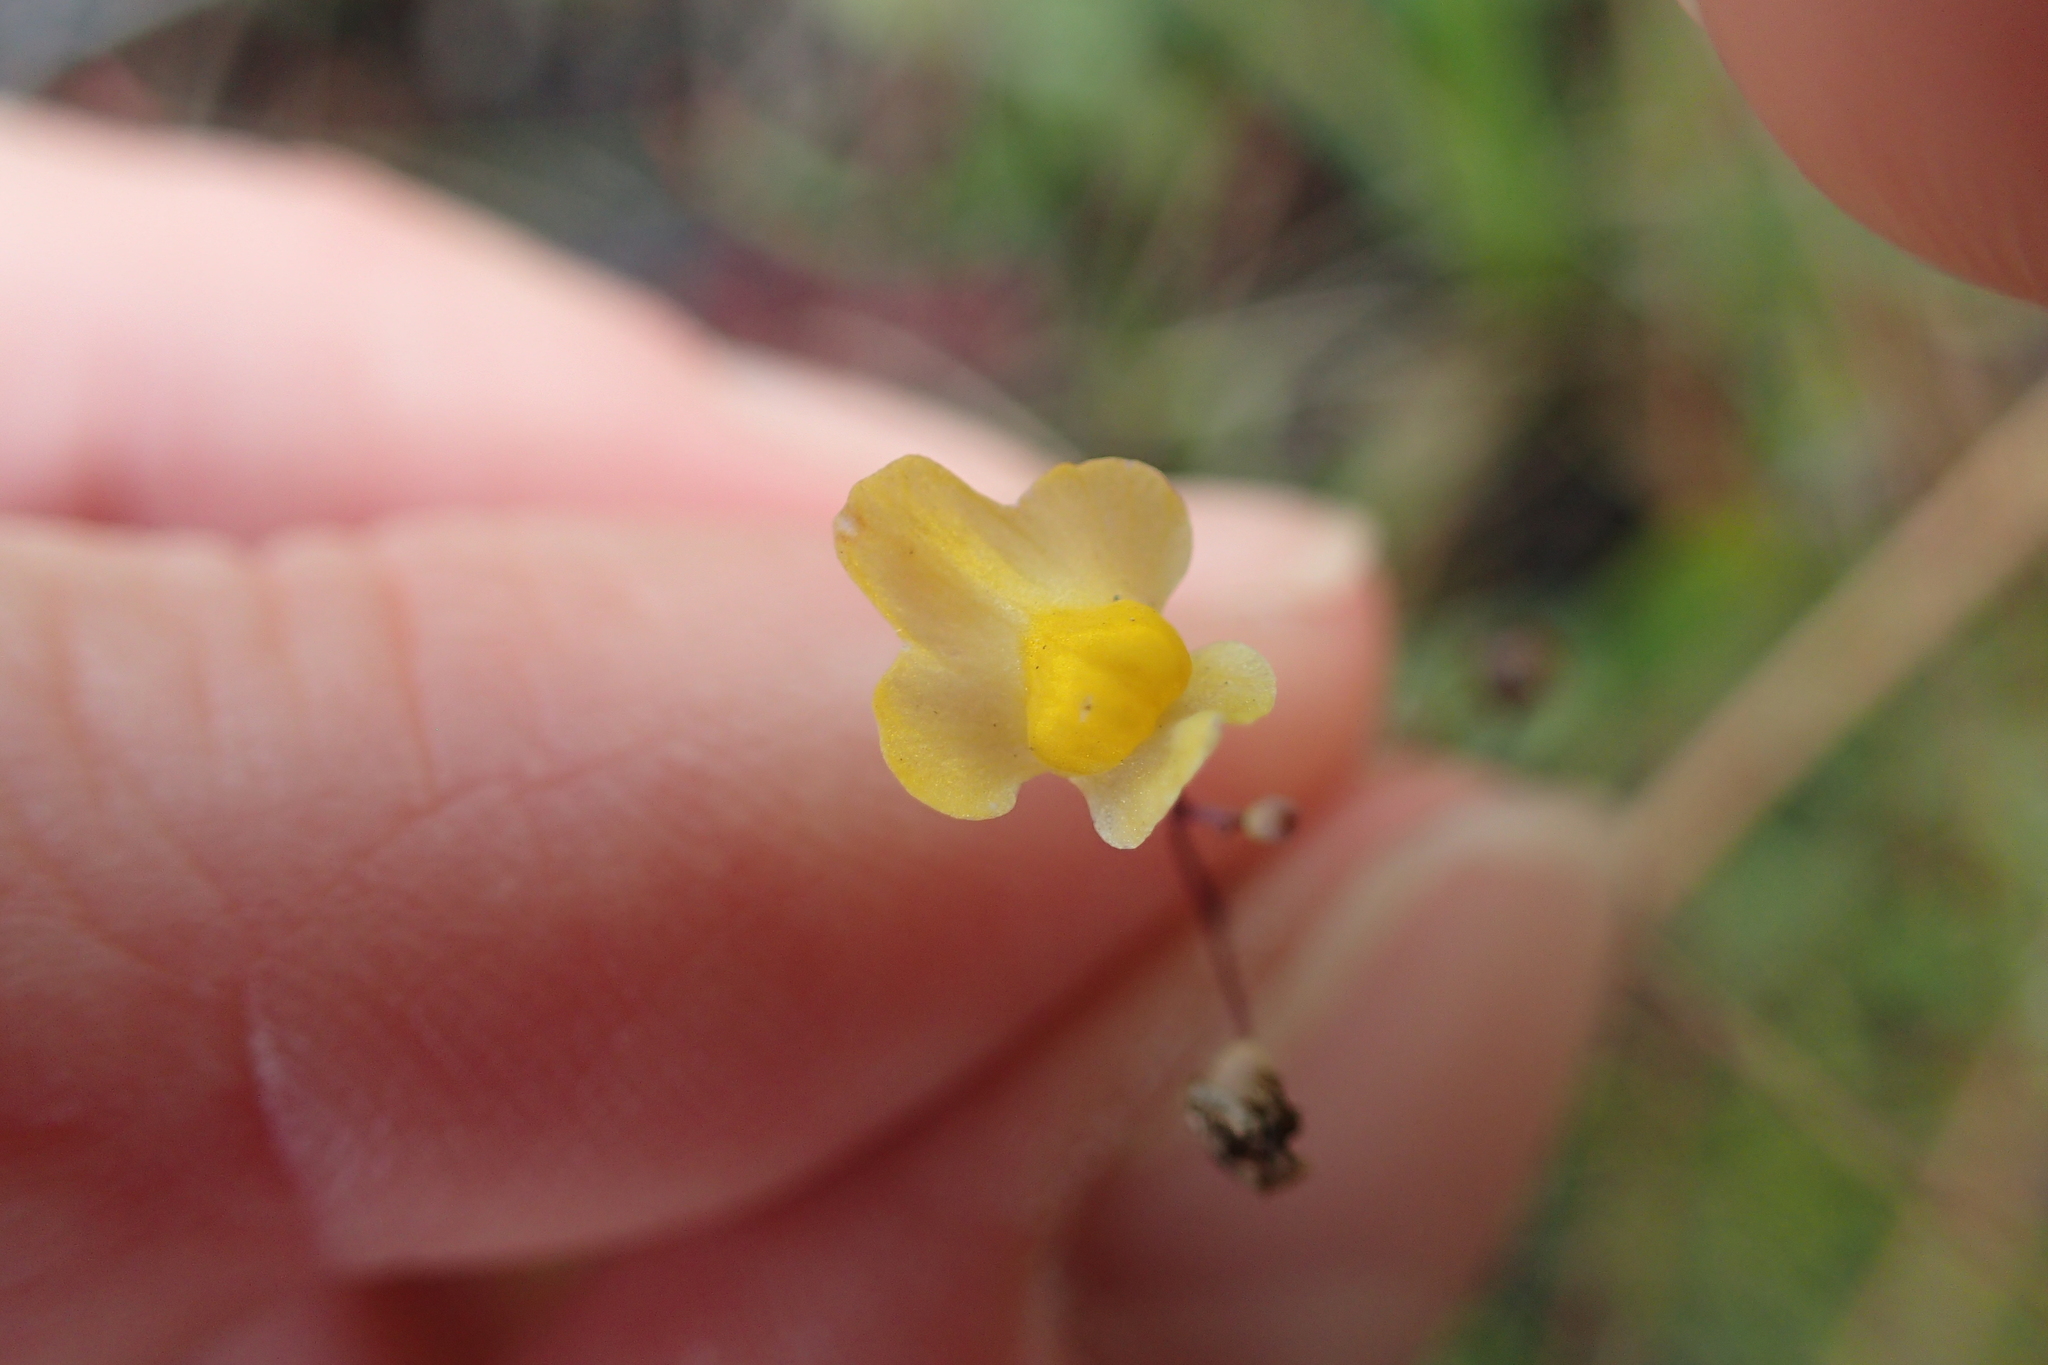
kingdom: Plantae
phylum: Tracheophyta
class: Magnoliopsida
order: Lamiales
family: Lentibulariaceae
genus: Utricularia
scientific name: Utricularia subulata
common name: Tiny bladderwort
